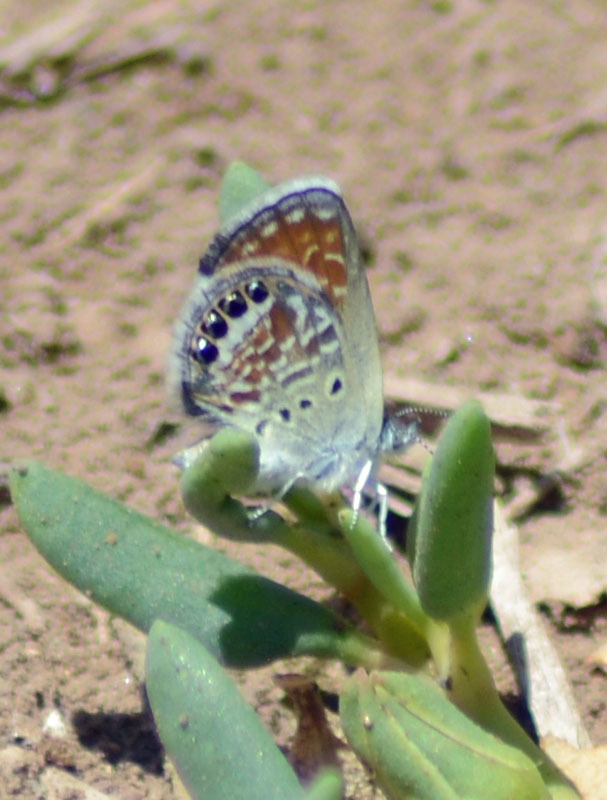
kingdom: Animalia
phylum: Arthropoda
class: Insecta
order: Lepidoptera
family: Lycaenidae
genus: Brephidium
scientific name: Brephidium exilis
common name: Pygmy blue
